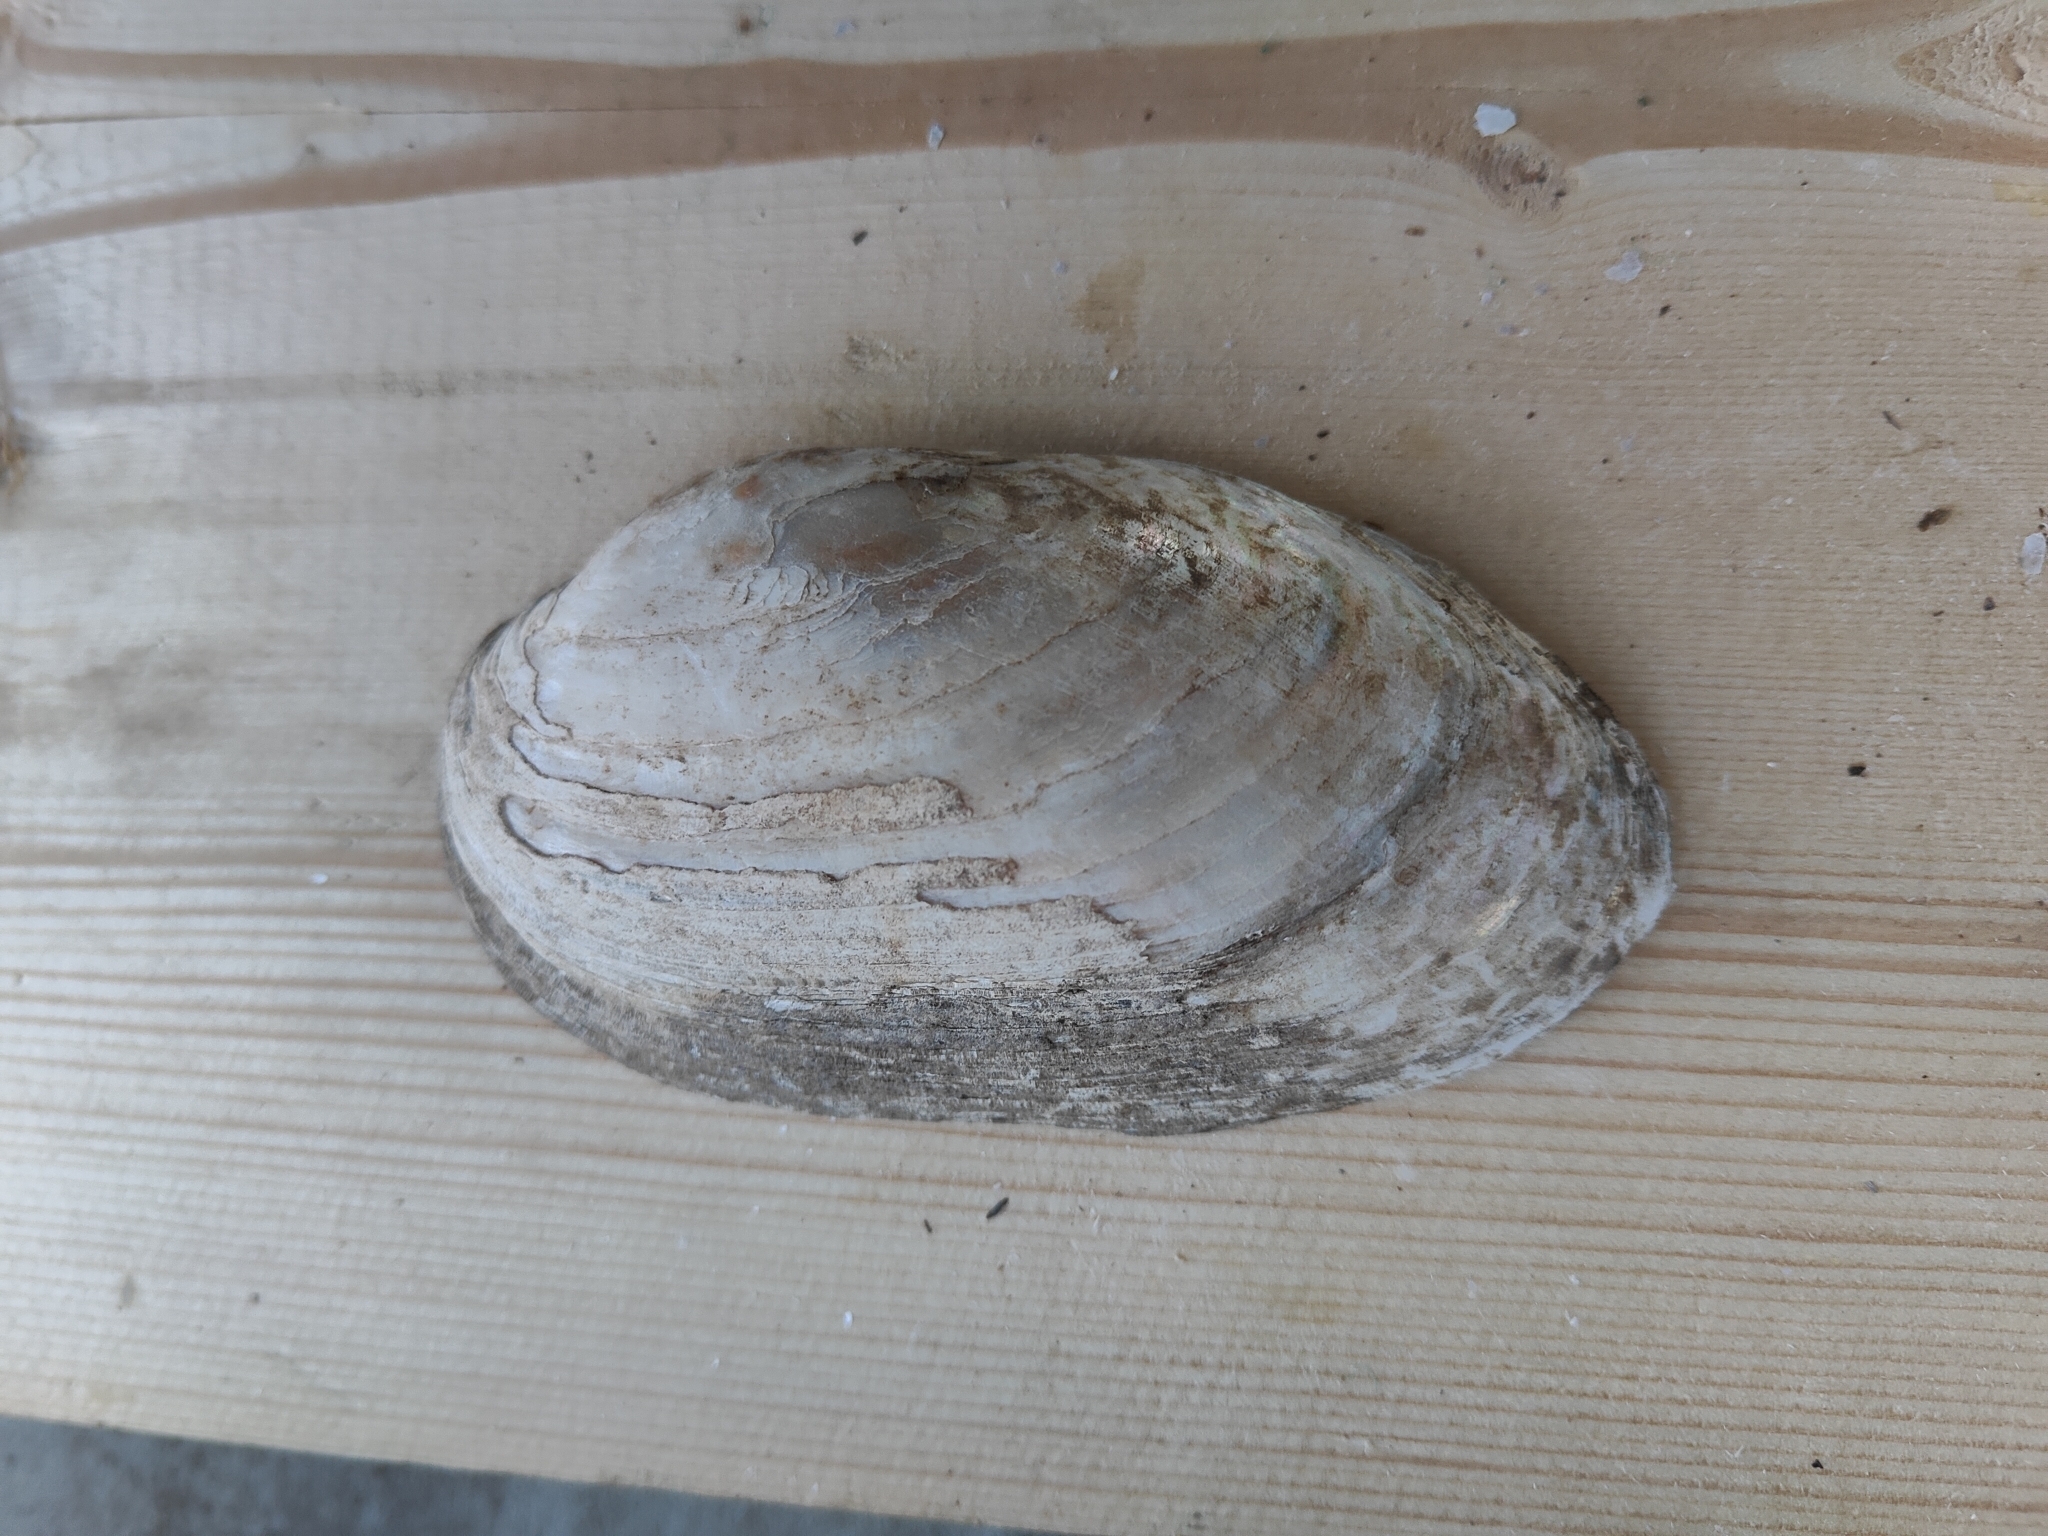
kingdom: Animalia
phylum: Mollusca
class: Bivalvia
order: Unionida
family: Unionidae
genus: Lampsilis
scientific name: Lampsilis siliquoidea
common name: Fatmucket
